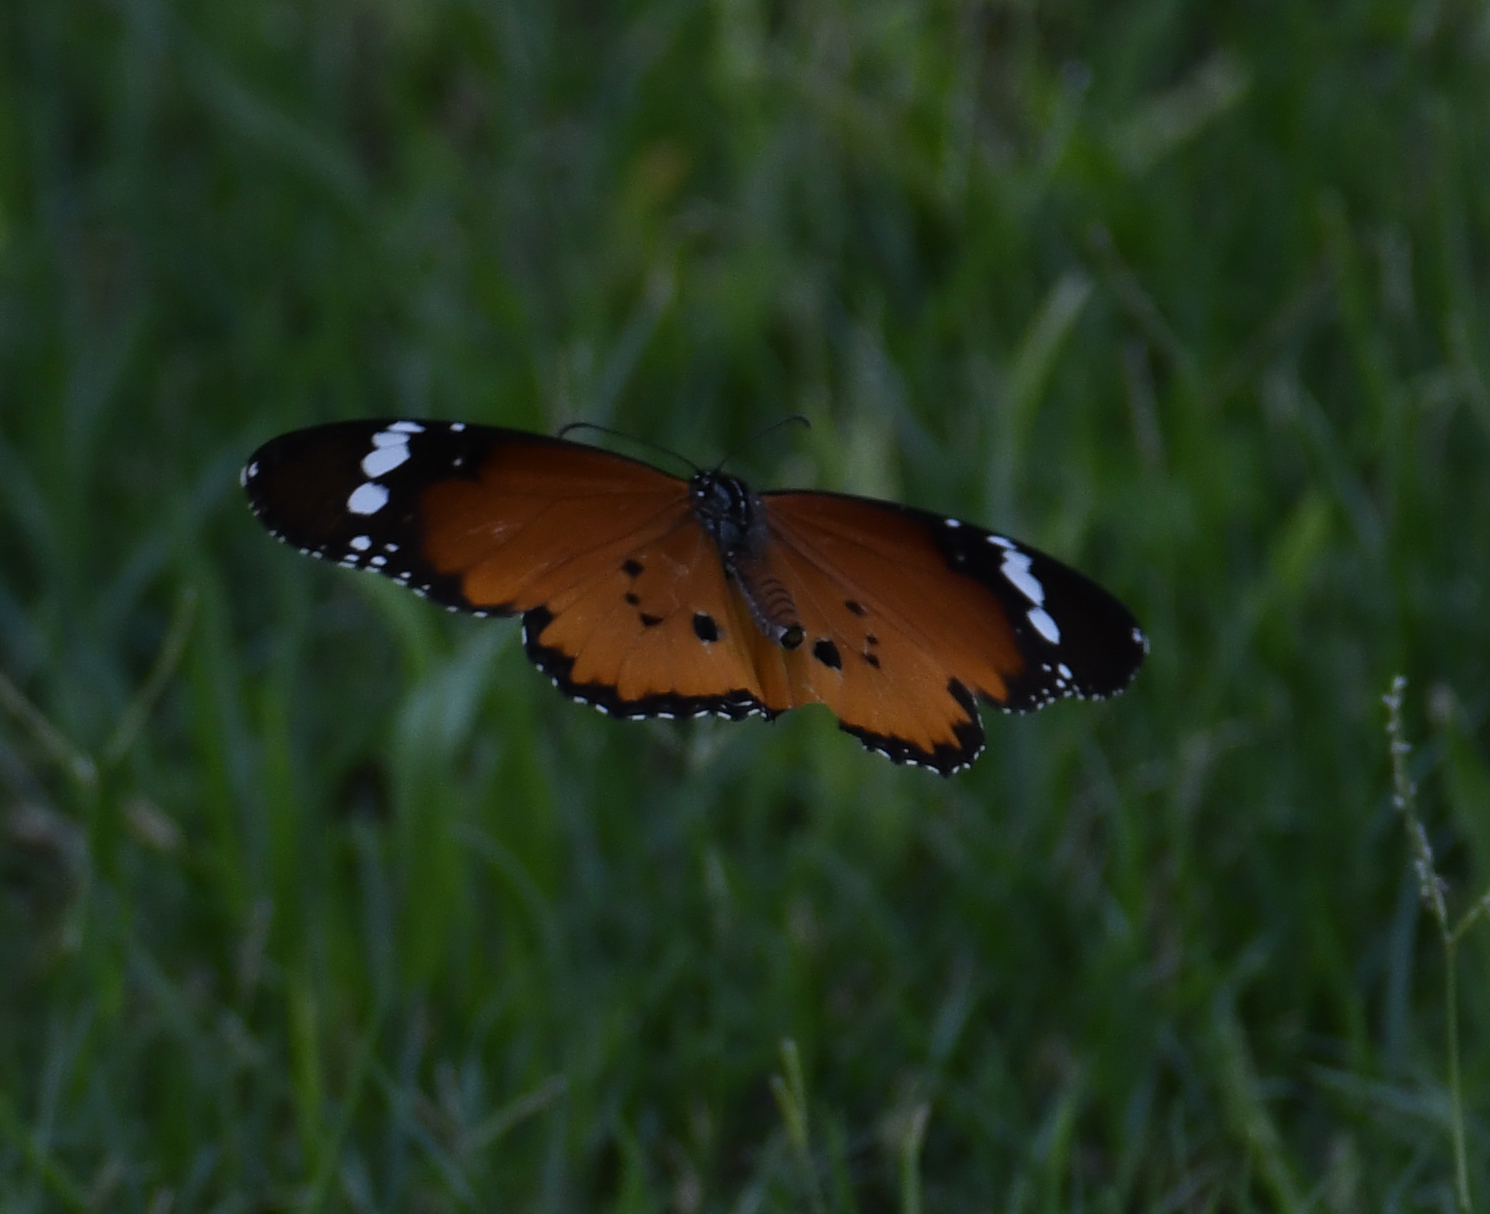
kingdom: Animalia
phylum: Arthropoda
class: Insecta
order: Lepidoptera
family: Nymphalidae
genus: Danaus
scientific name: Danaus chrysippus
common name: Plain tiger
